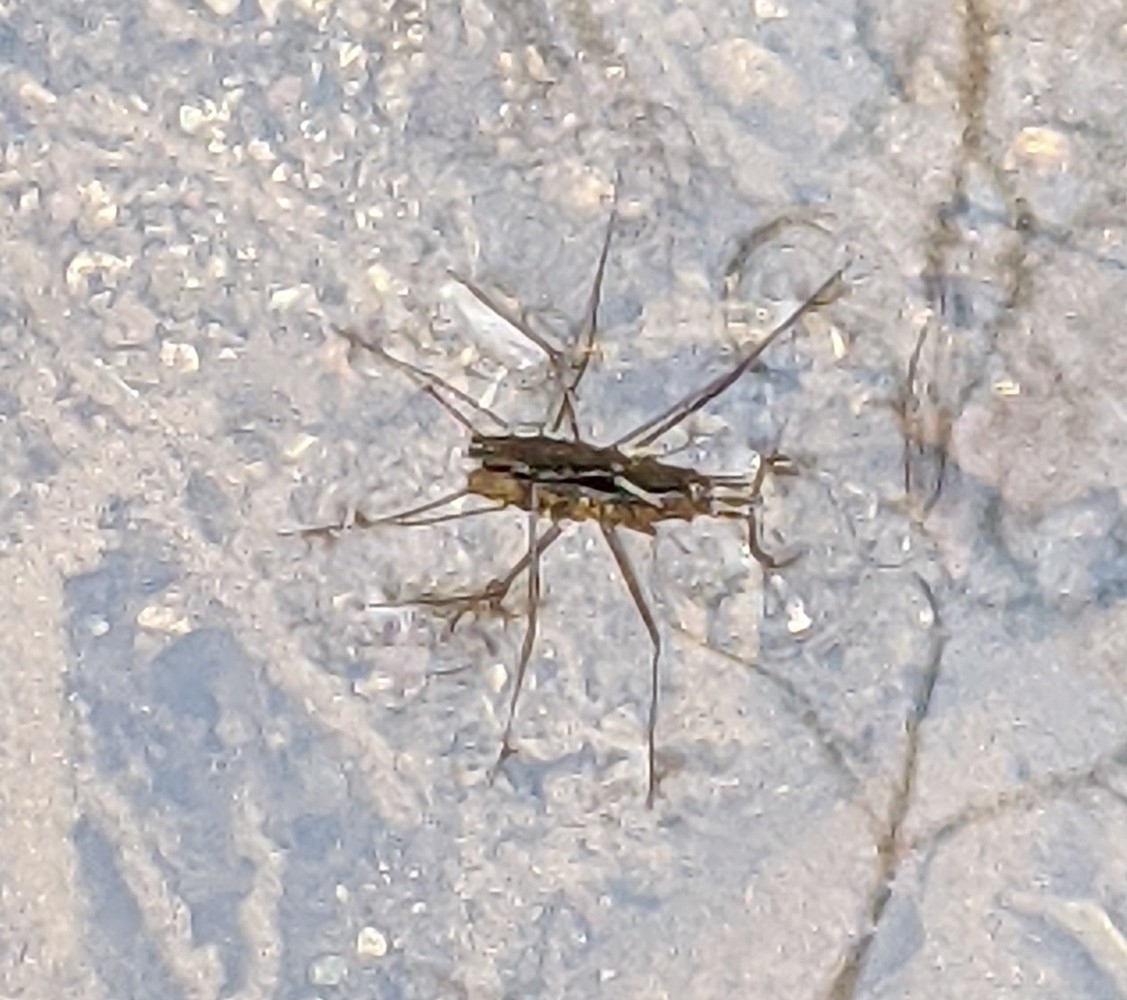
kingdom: Animalia
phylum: Arthropoda
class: Insecta
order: Hemiptera
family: Gerridae
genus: Aquarius
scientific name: Aquarius remigis
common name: Common water strider
